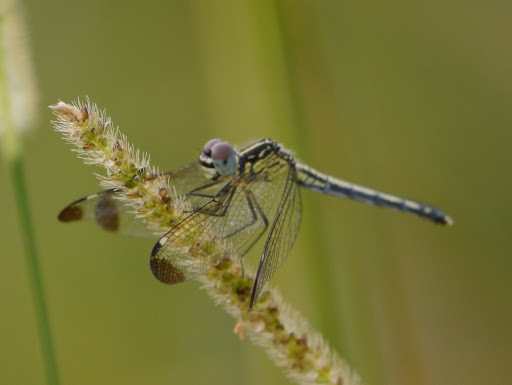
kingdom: Animalia
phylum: Arthropoda
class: Insecta
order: Odonata
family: Libellulidae
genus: Hemistigma
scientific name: Hemistigma albipunctum
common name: African pied-spot
